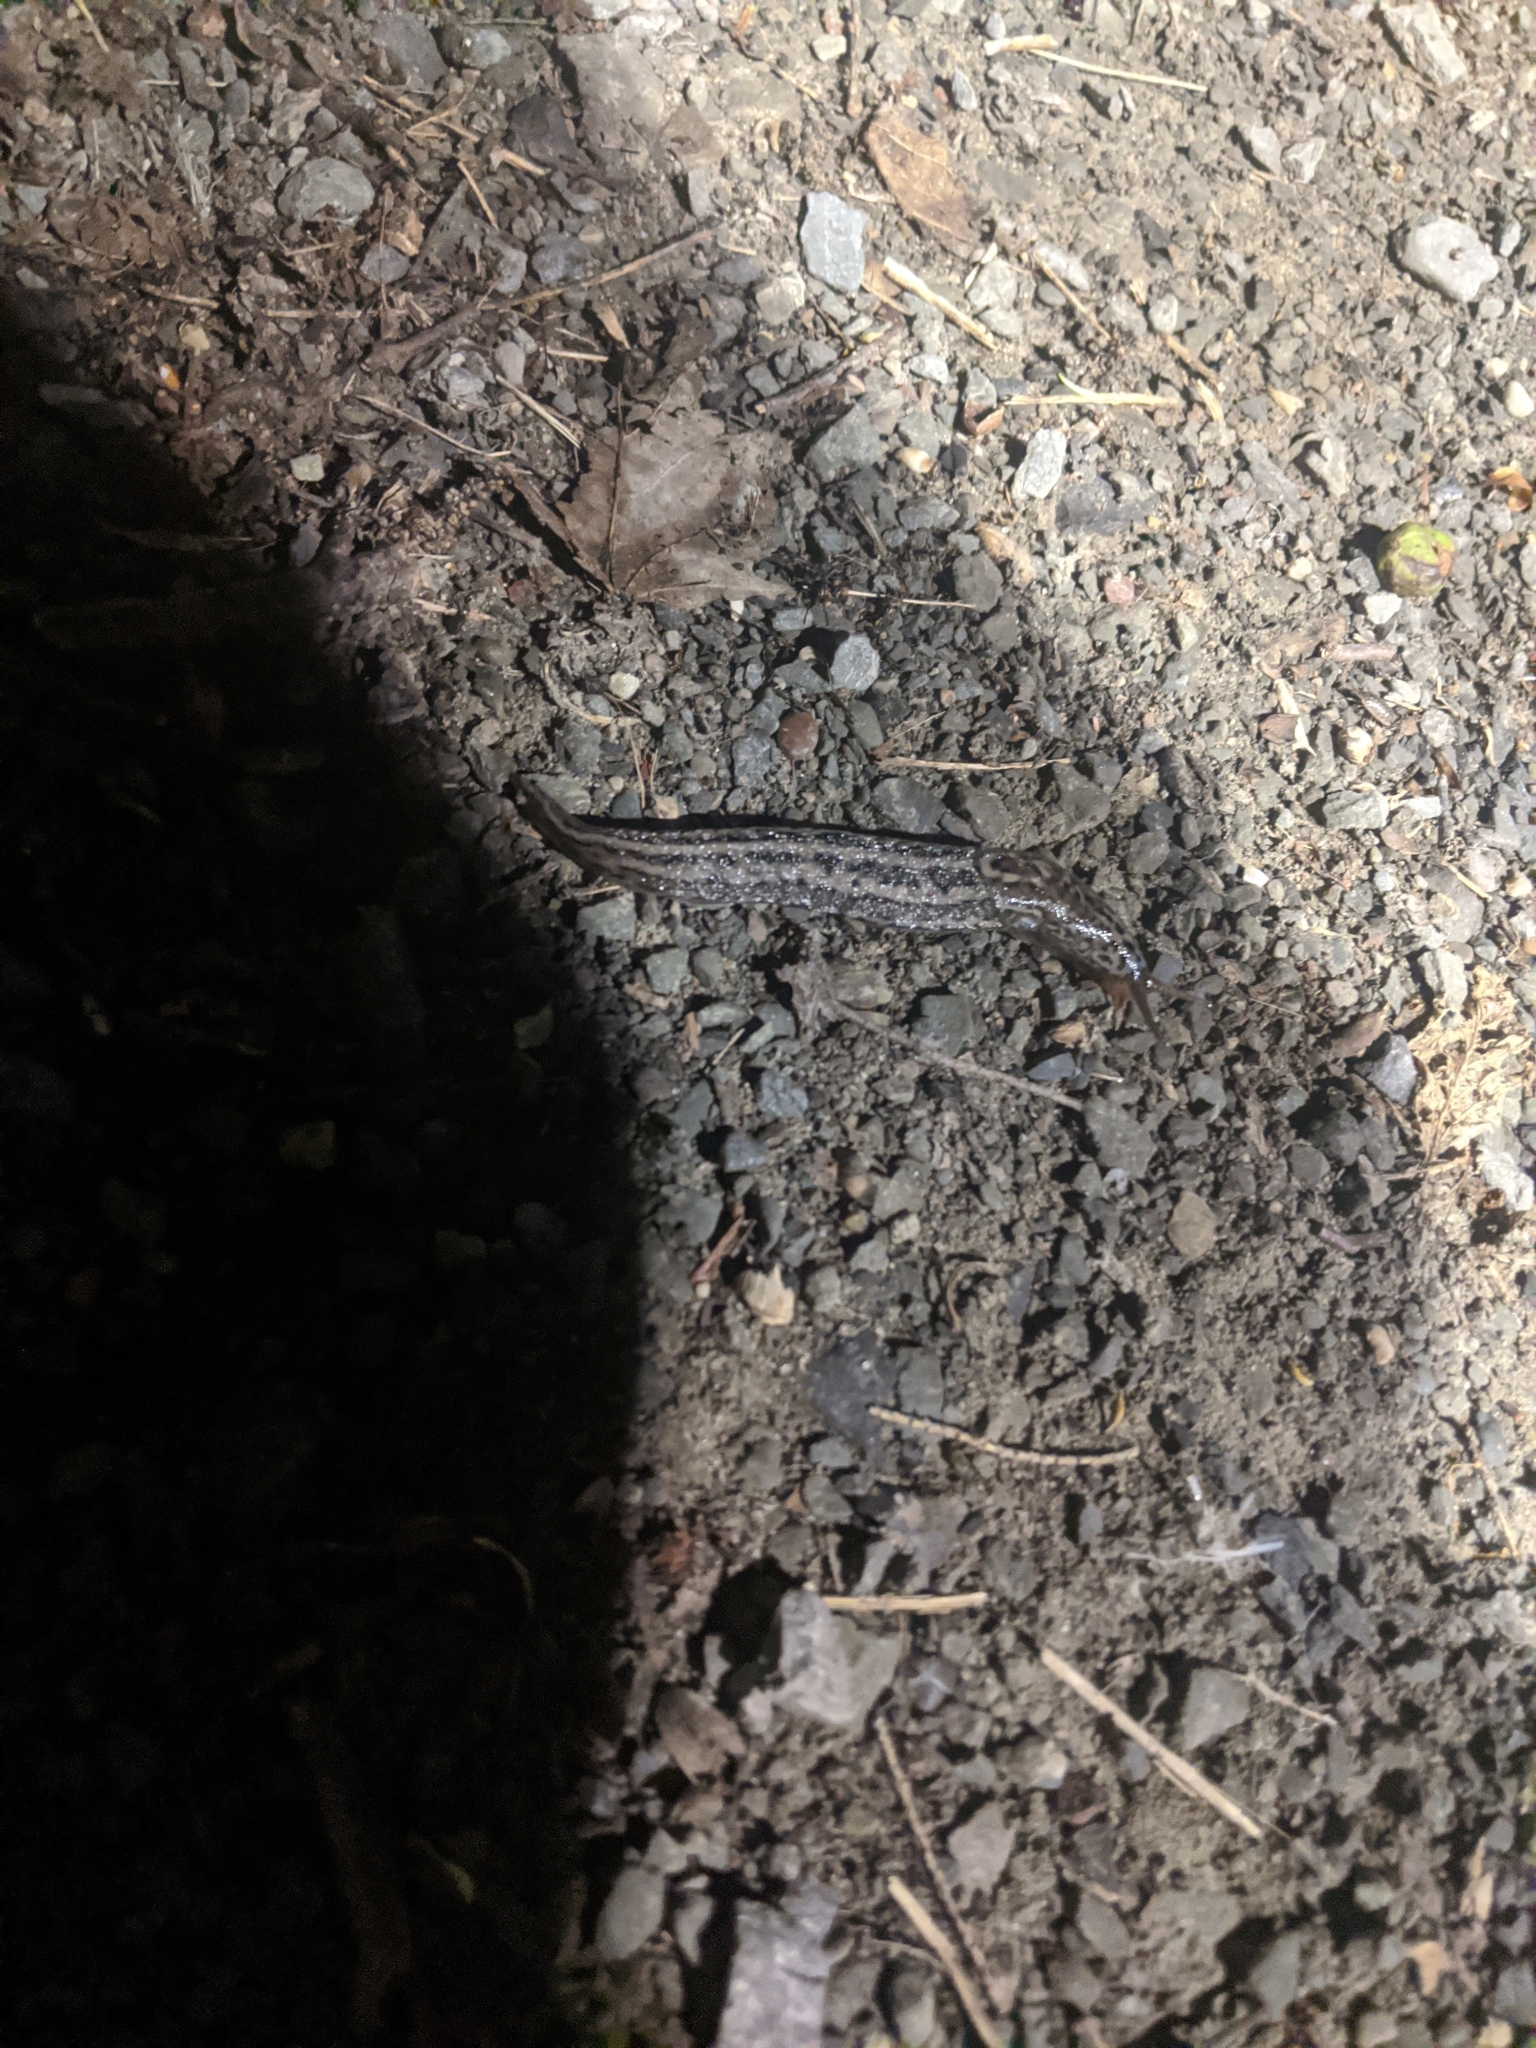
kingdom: Animalia
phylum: Mollusca
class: Gastropoda
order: Stylommatophora
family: Limacidae
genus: Limax
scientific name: Limax maximus
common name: Great grey slug
